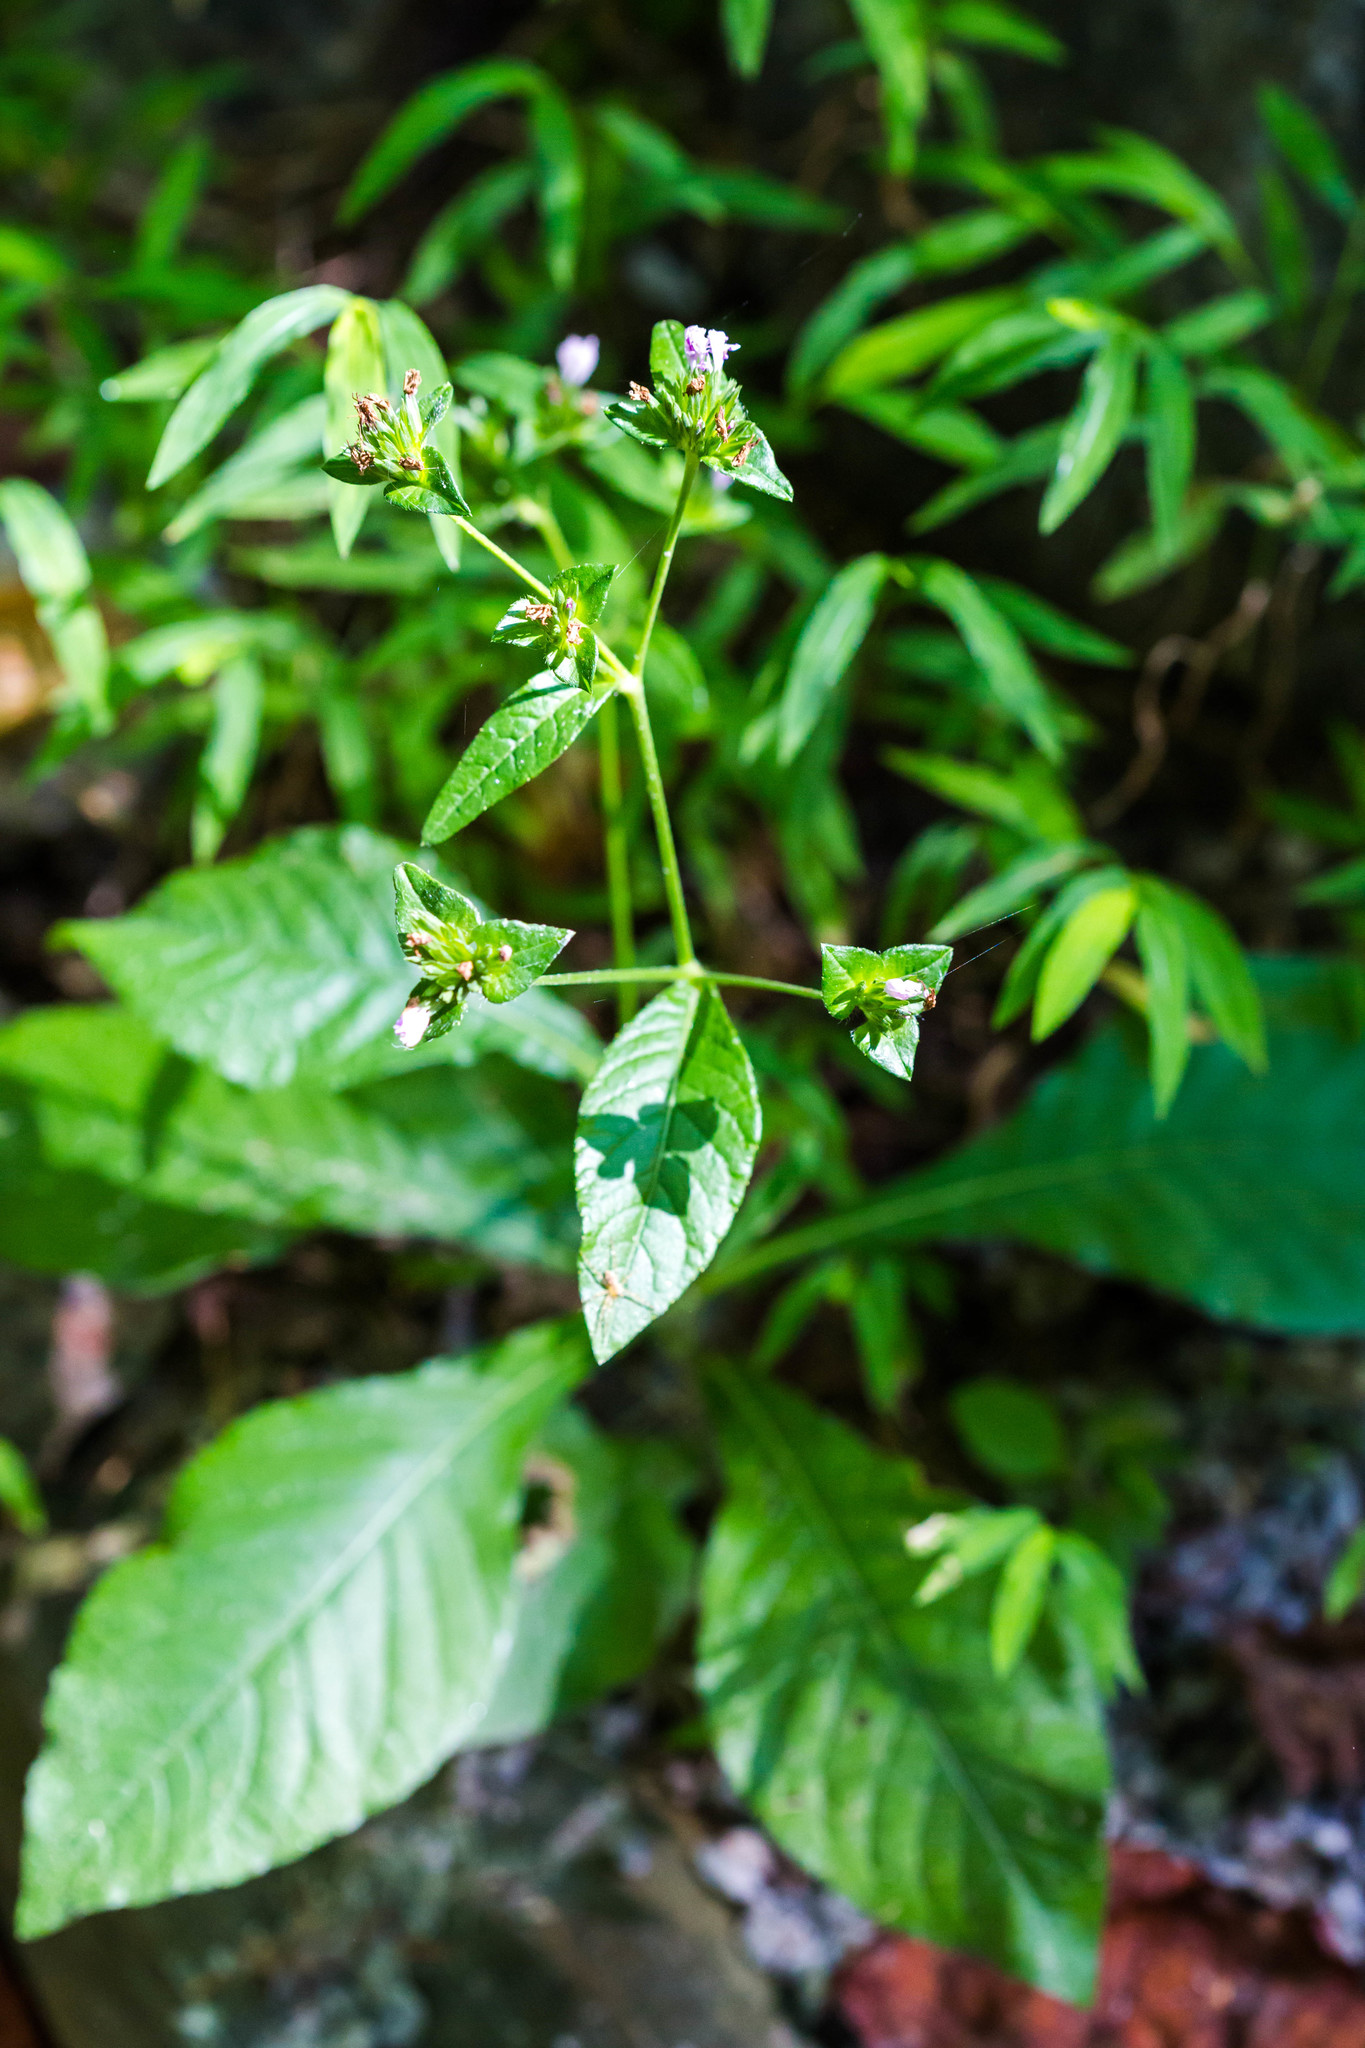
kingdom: Plantae
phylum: Tracheophyta
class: Magnoliopsida
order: Asterales
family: Asteraceae
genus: Elephantopus
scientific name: Elephantopus carolinianus
